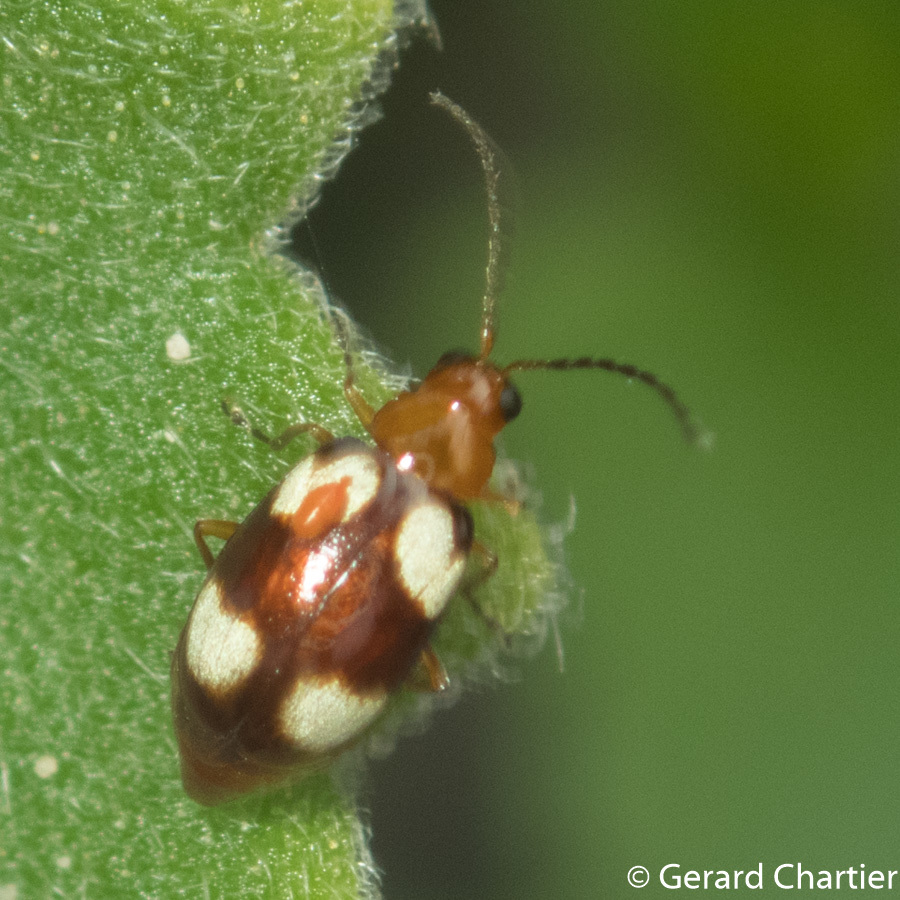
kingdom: Animalia
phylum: Arthropoda
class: Insecta
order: Coleoptera
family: Chrysomelidae
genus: Monolepta
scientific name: Monolepta signata
